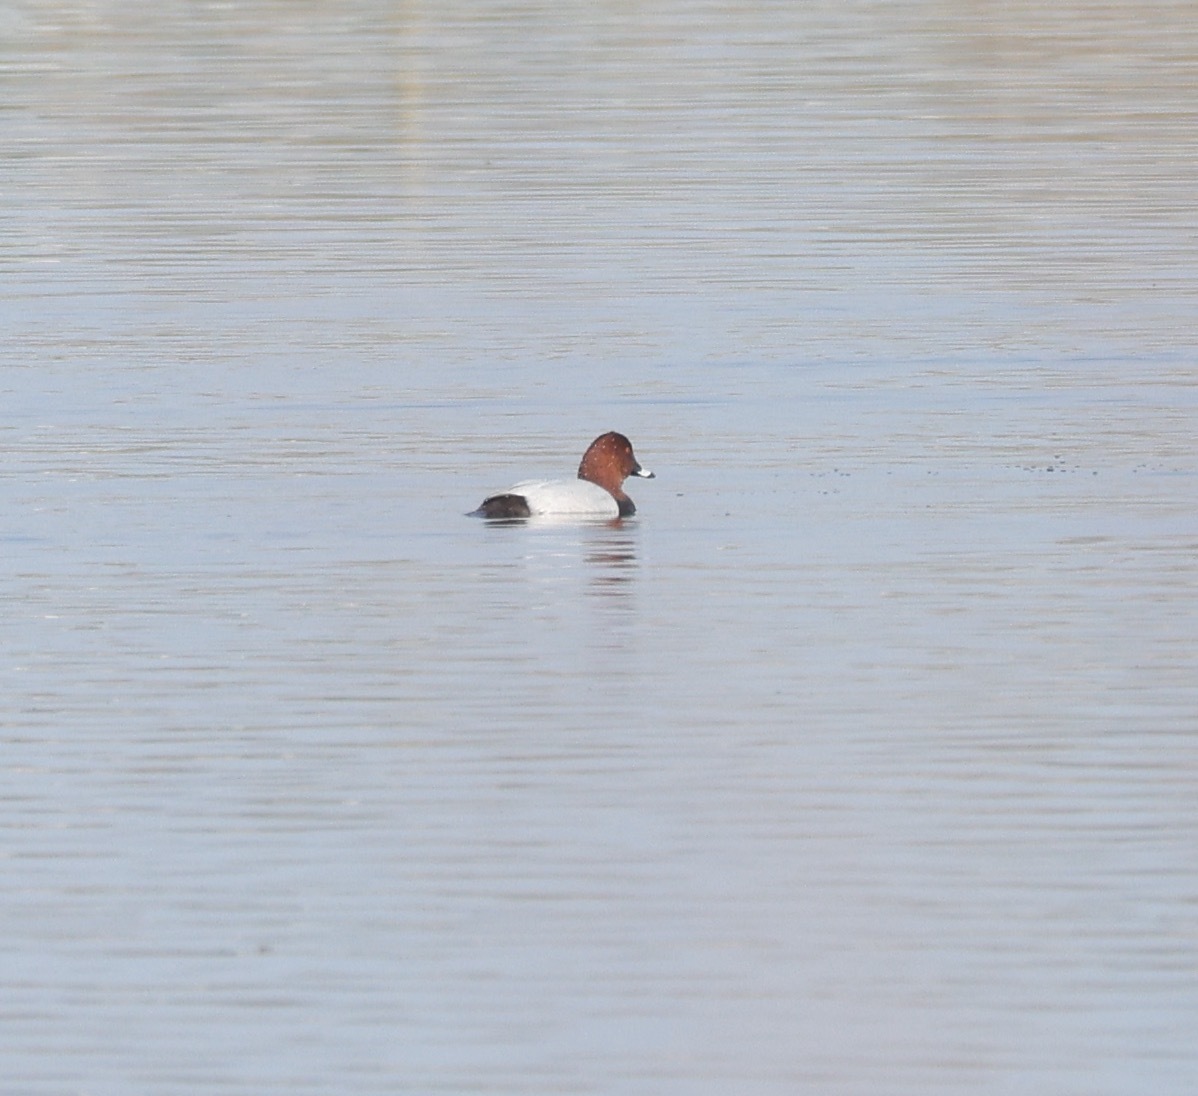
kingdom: Animalia
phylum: Chordata
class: Aves
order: Anseriformes
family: Anatidae
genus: Aythya
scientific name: Aythya ferina
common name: Common pochard
